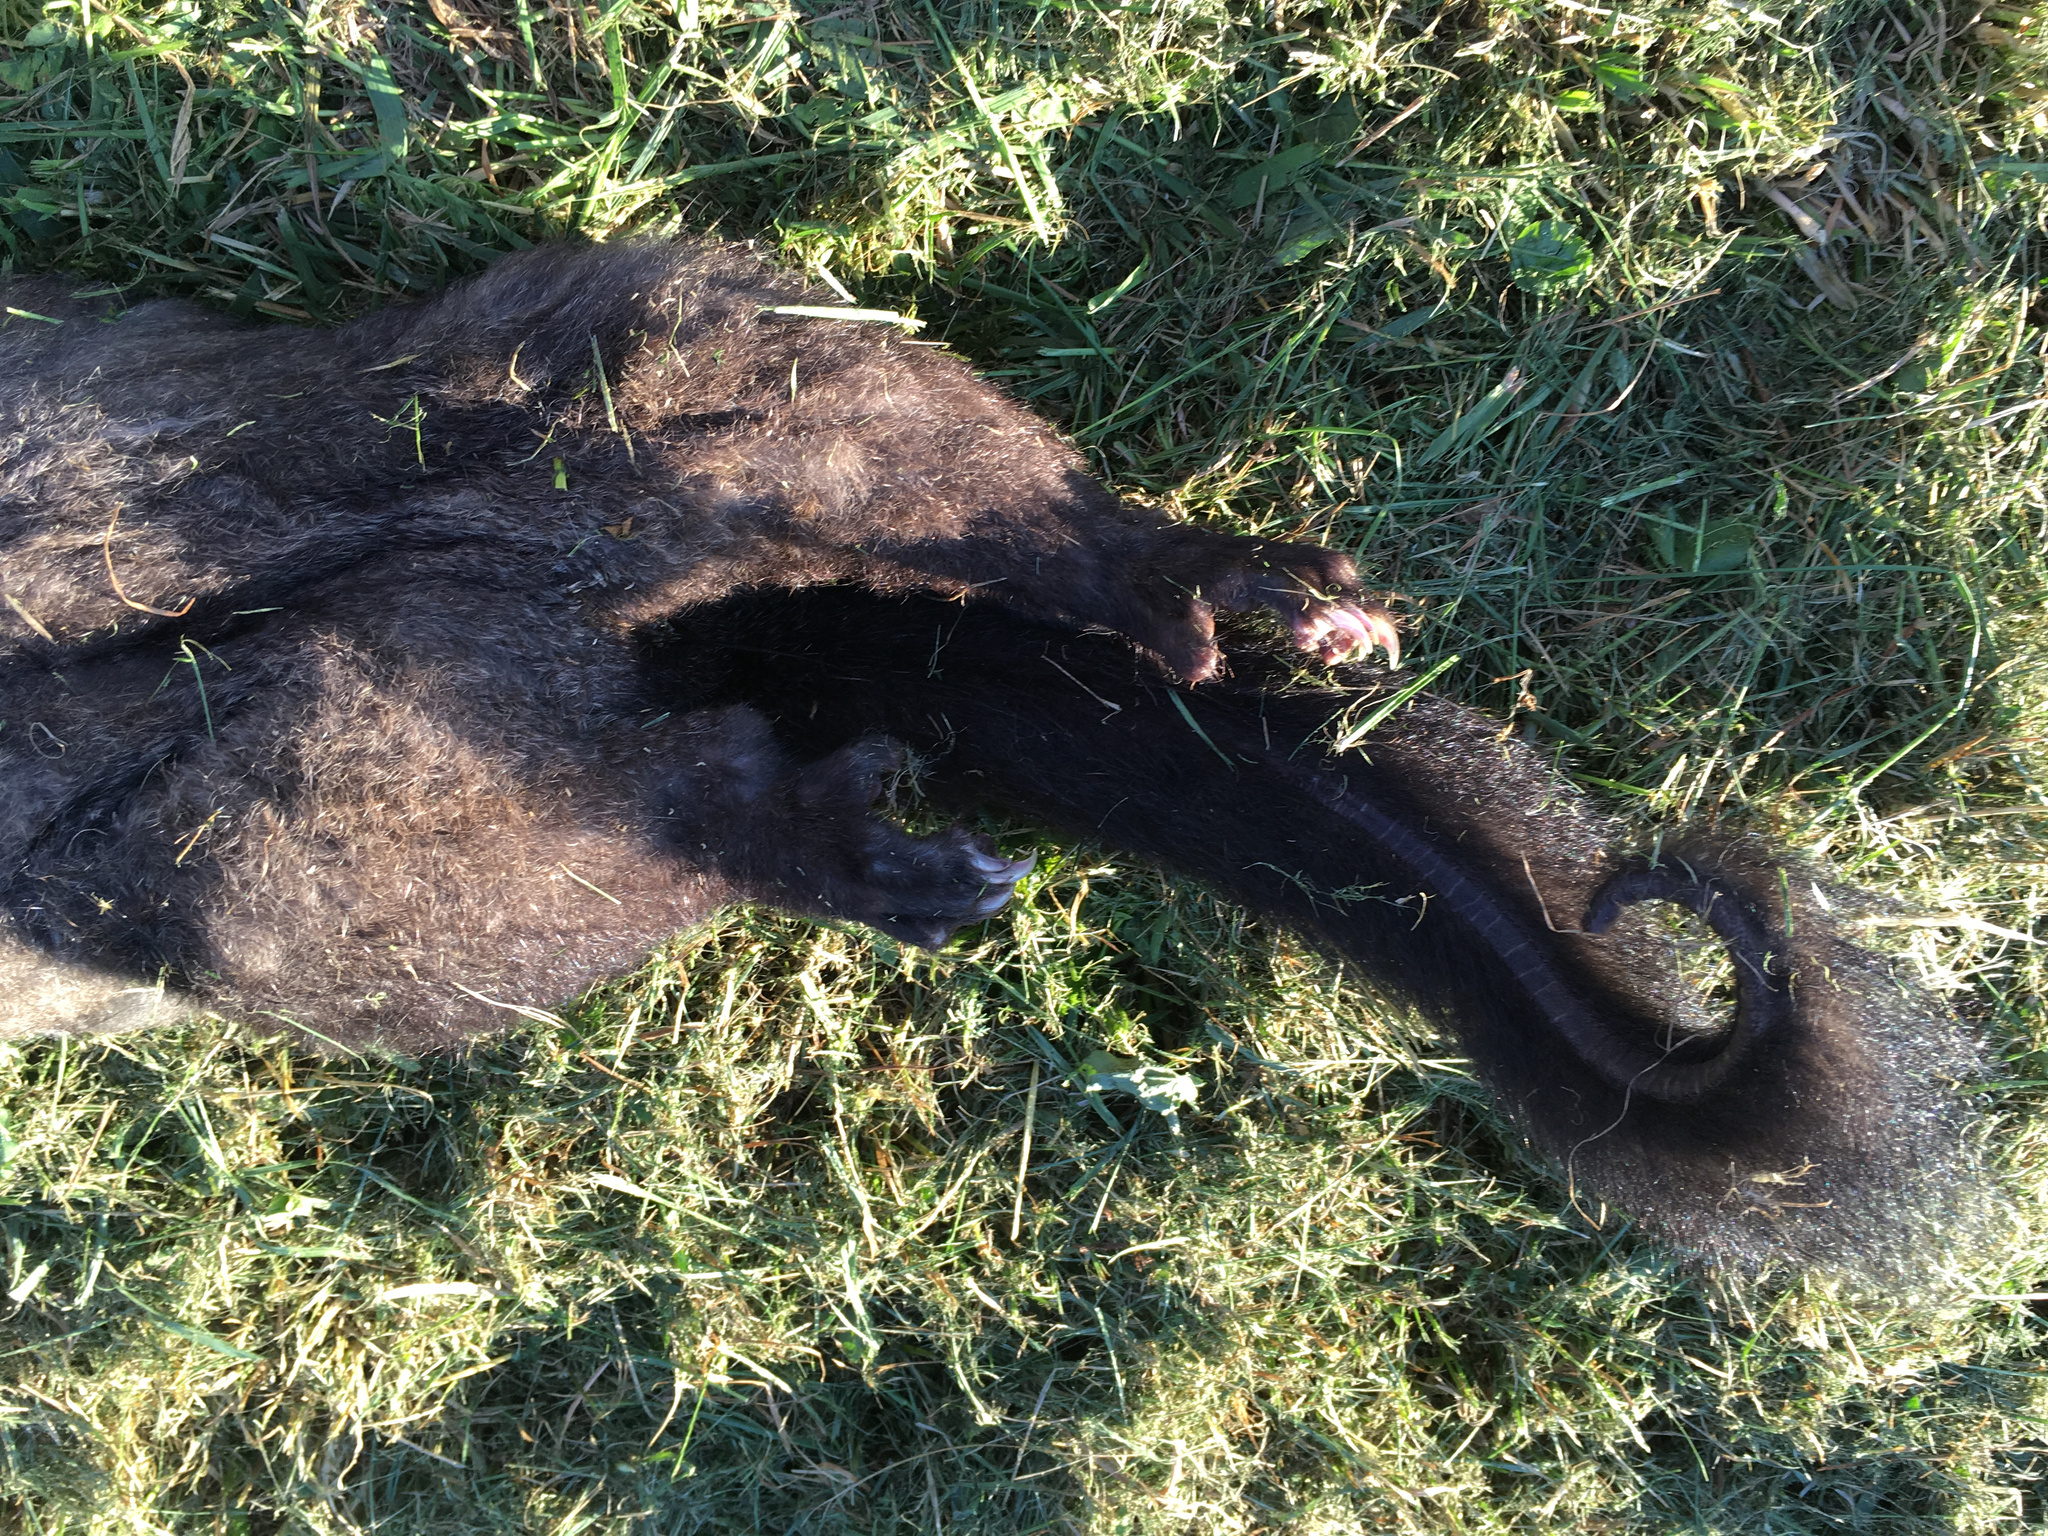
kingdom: Animalia
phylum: Chordata
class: Mammalia
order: Diprotodontia
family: Phalangeridae
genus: Trichosurus
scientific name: Trichosurus vulpecula
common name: Common brushtail
